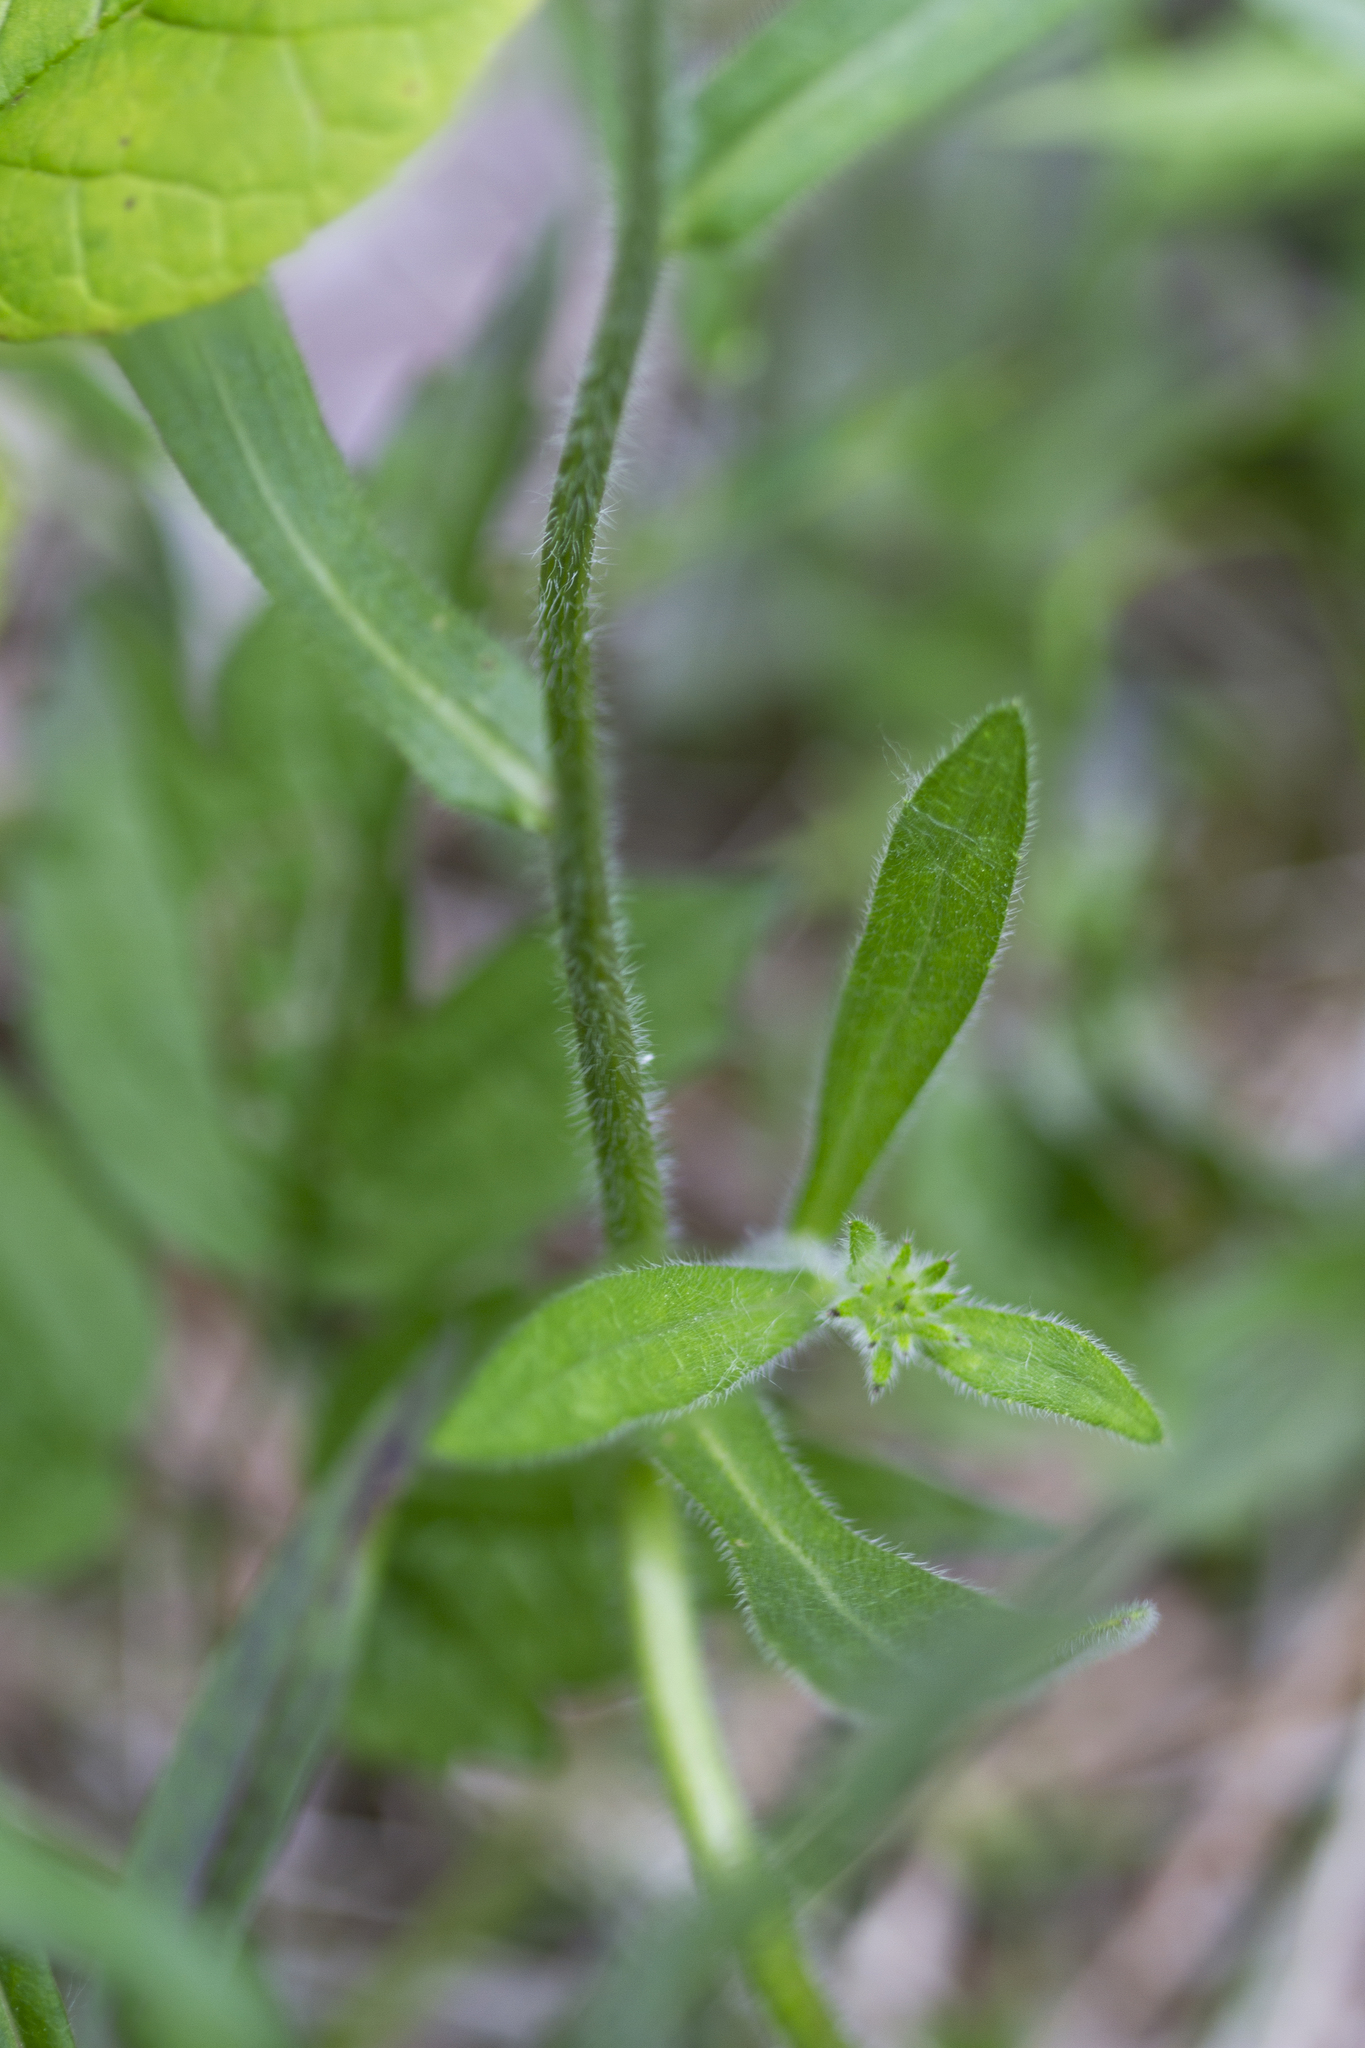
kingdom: Plantae
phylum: Tracheophyta
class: Magnoliopsida
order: Asterales
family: Asteraceae
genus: Rudbeckia
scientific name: Rudbeckia hirta
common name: Black-eyed-susan
